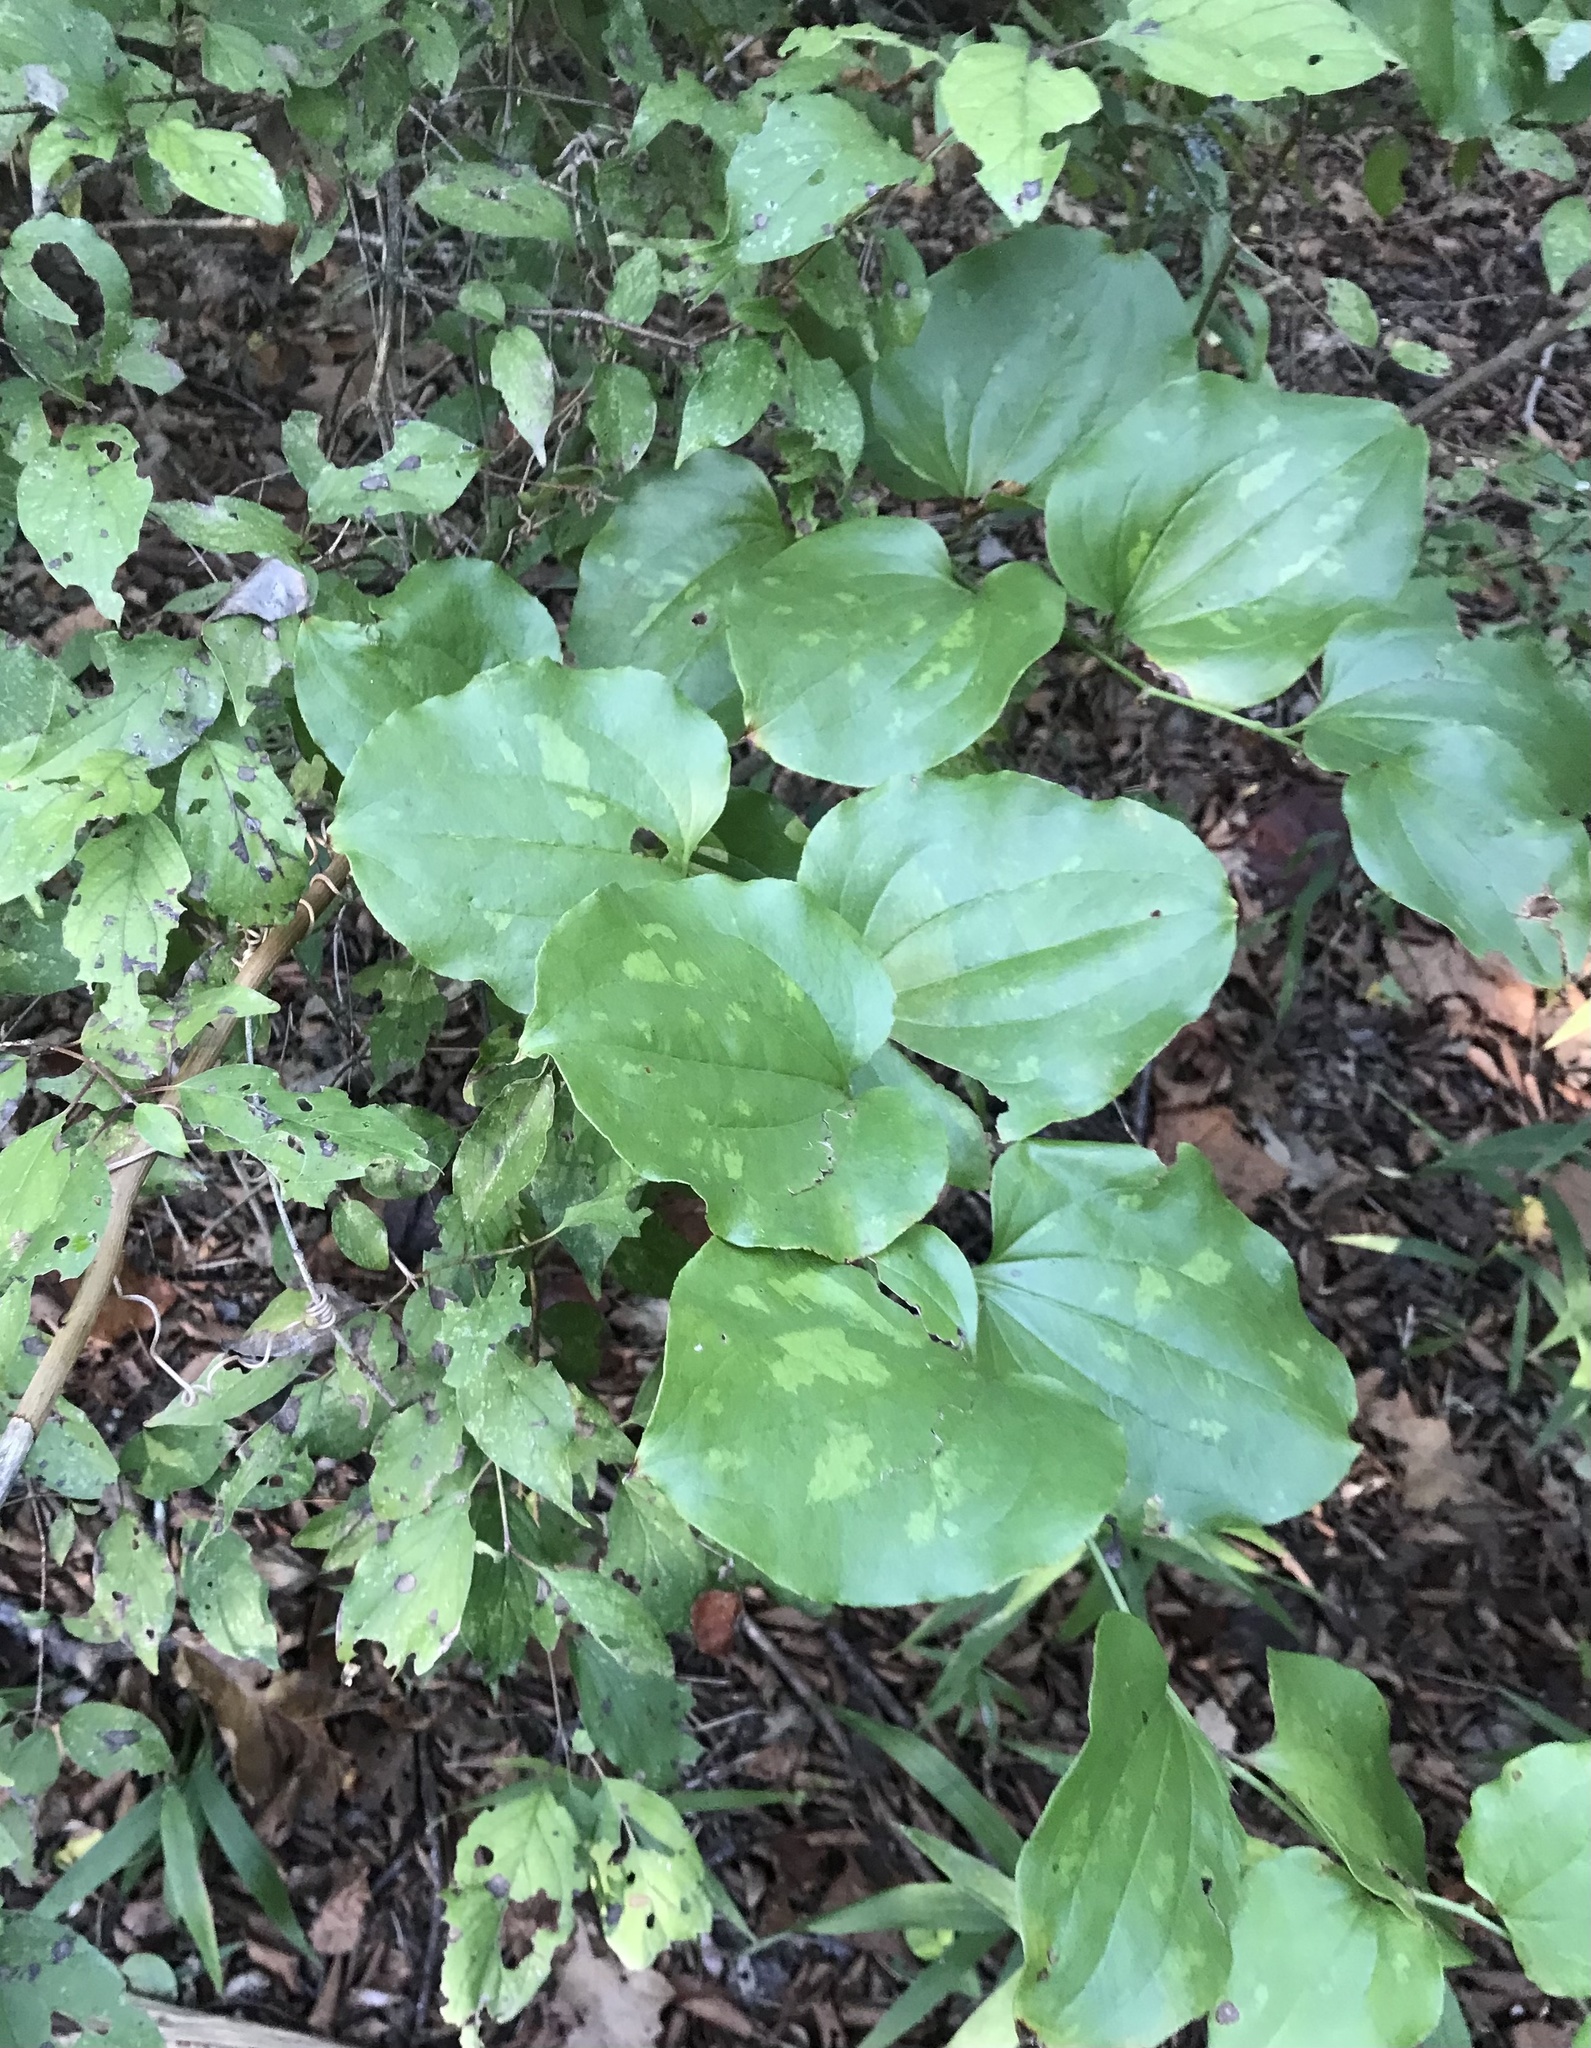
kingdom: Plantae
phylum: Tracheophyta
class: Liliopsida
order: Liliales
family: Smilacaceae
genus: Smilax
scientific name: Smilax bona-nox
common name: Catbrier
